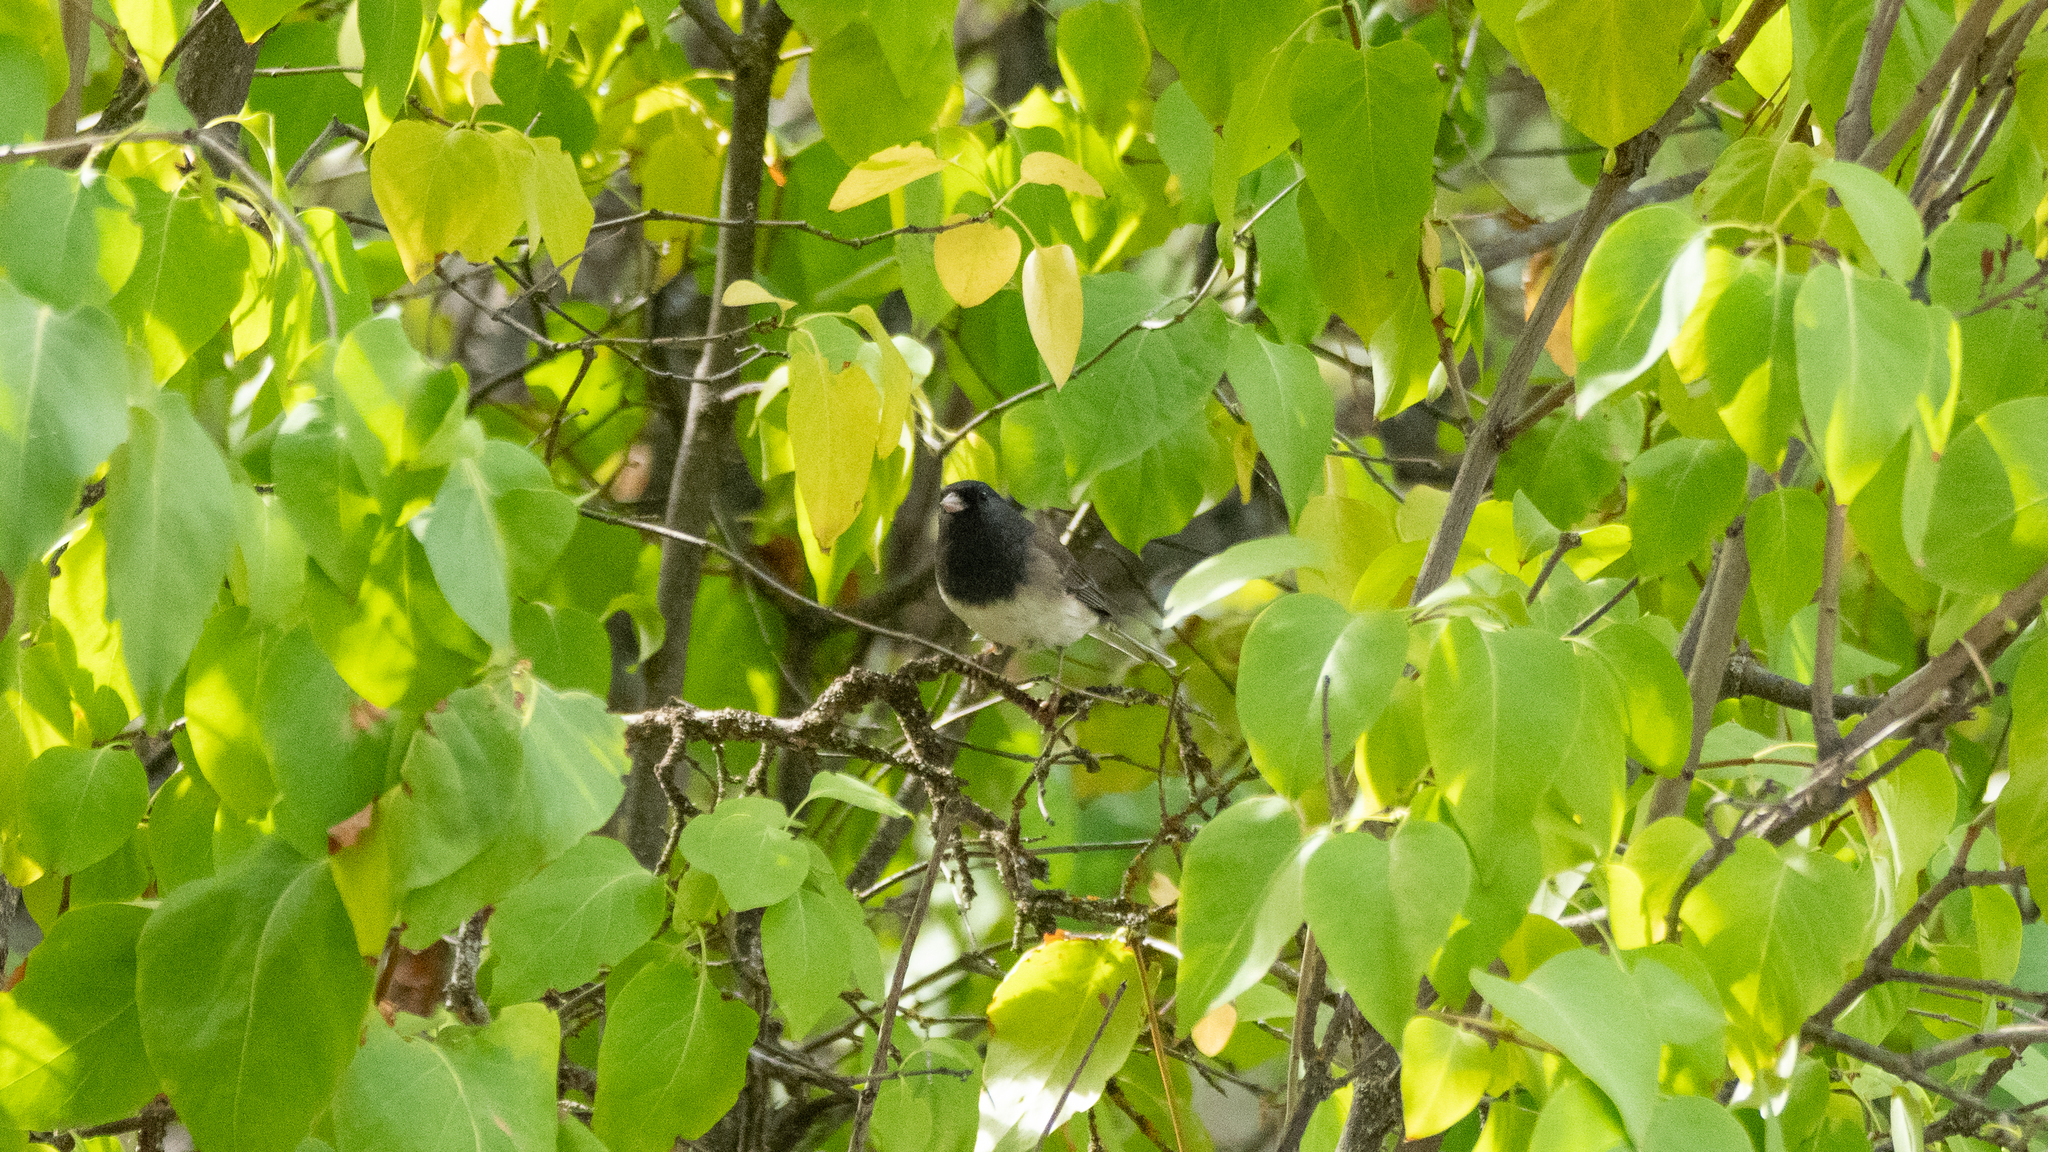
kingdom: Animalia
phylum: Chordata
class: Aves
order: Passeriformes
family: Passerellidae
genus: Junco
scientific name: Junco hyemalis
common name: Dark-eyed junco
